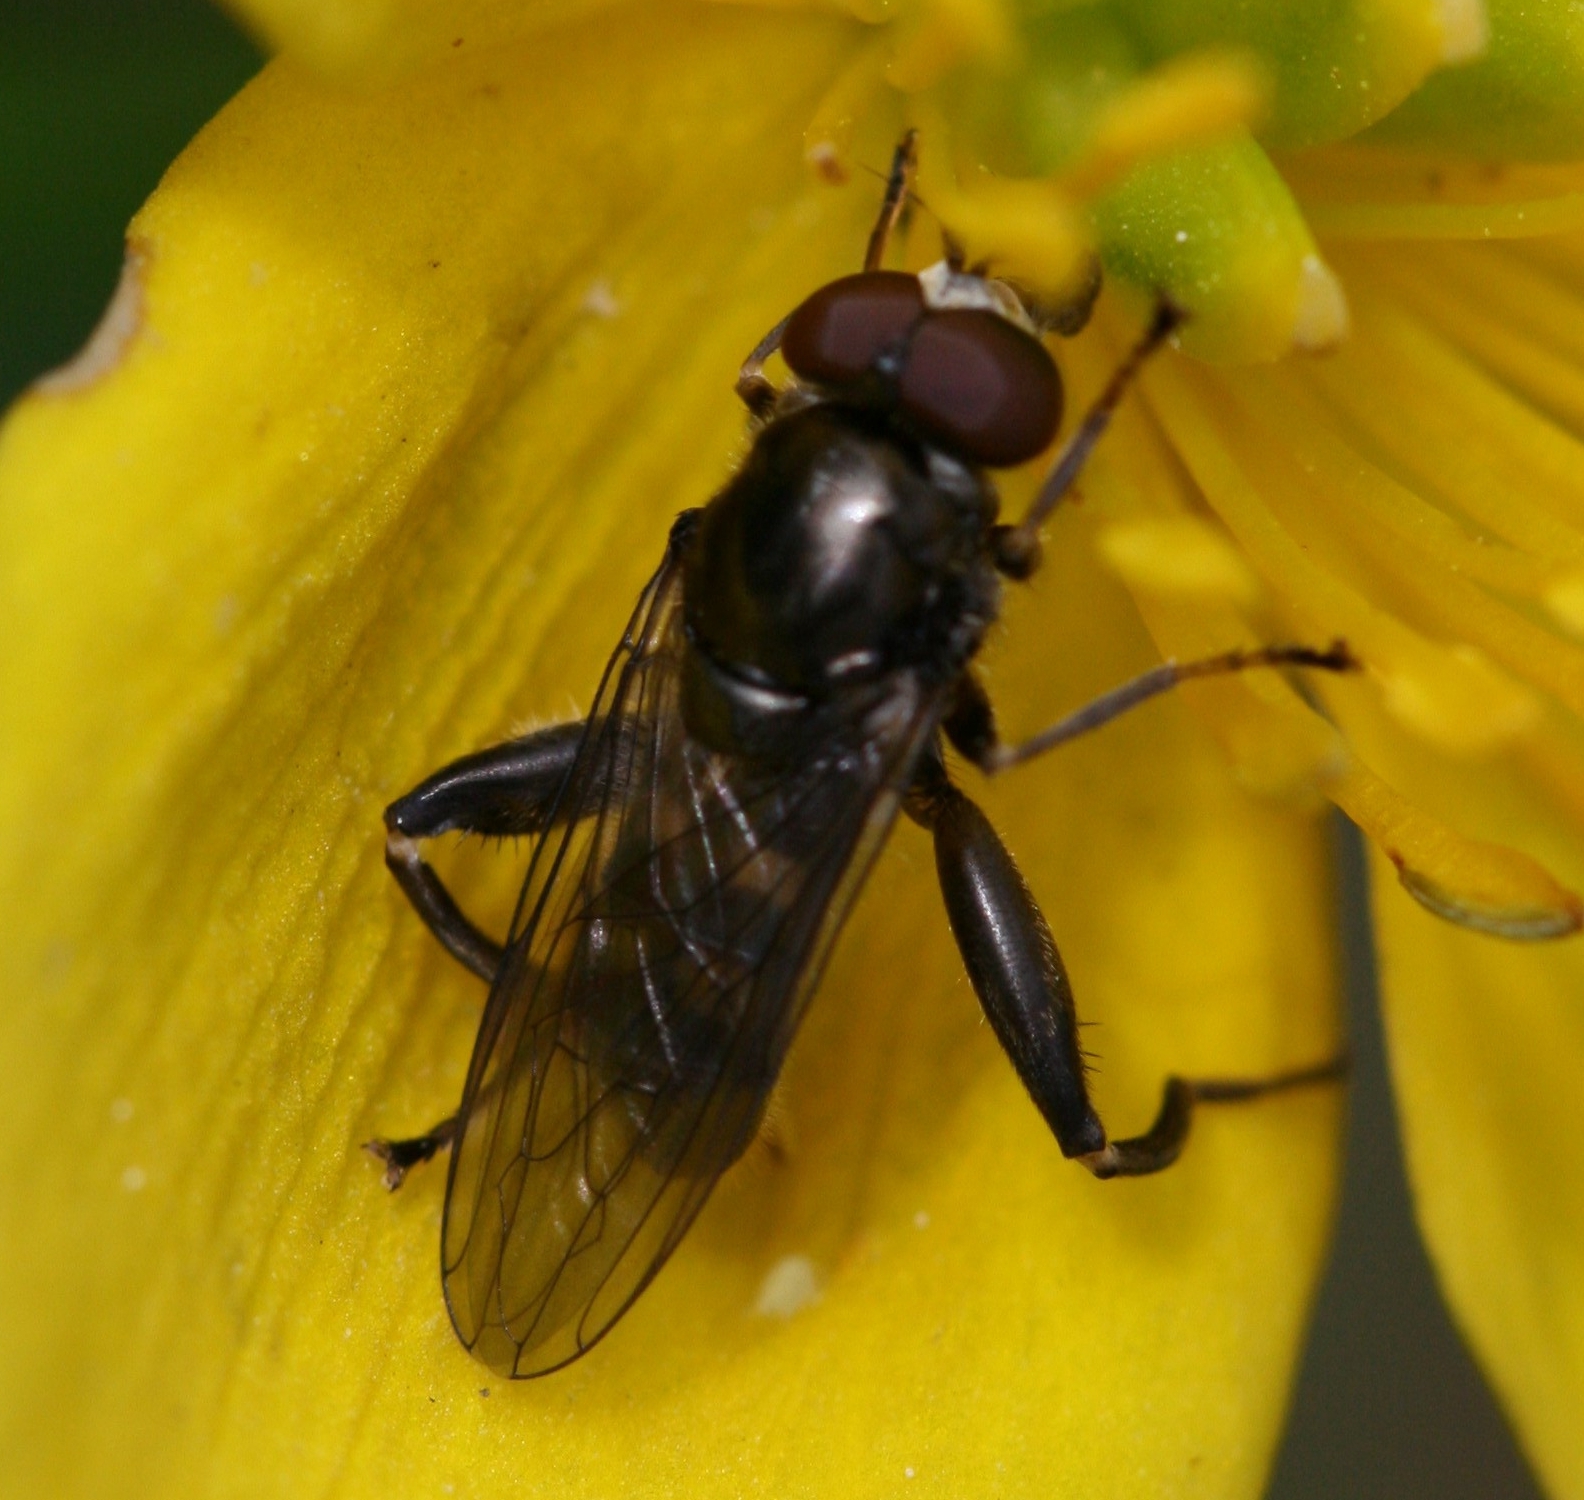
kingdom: Animalia
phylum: Arthropoda
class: Insecta
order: Diptera
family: Syrphidae
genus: Chalcosyrphus
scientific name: Chalcosyrphus nemorum
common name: Dusky-banded forest fly
